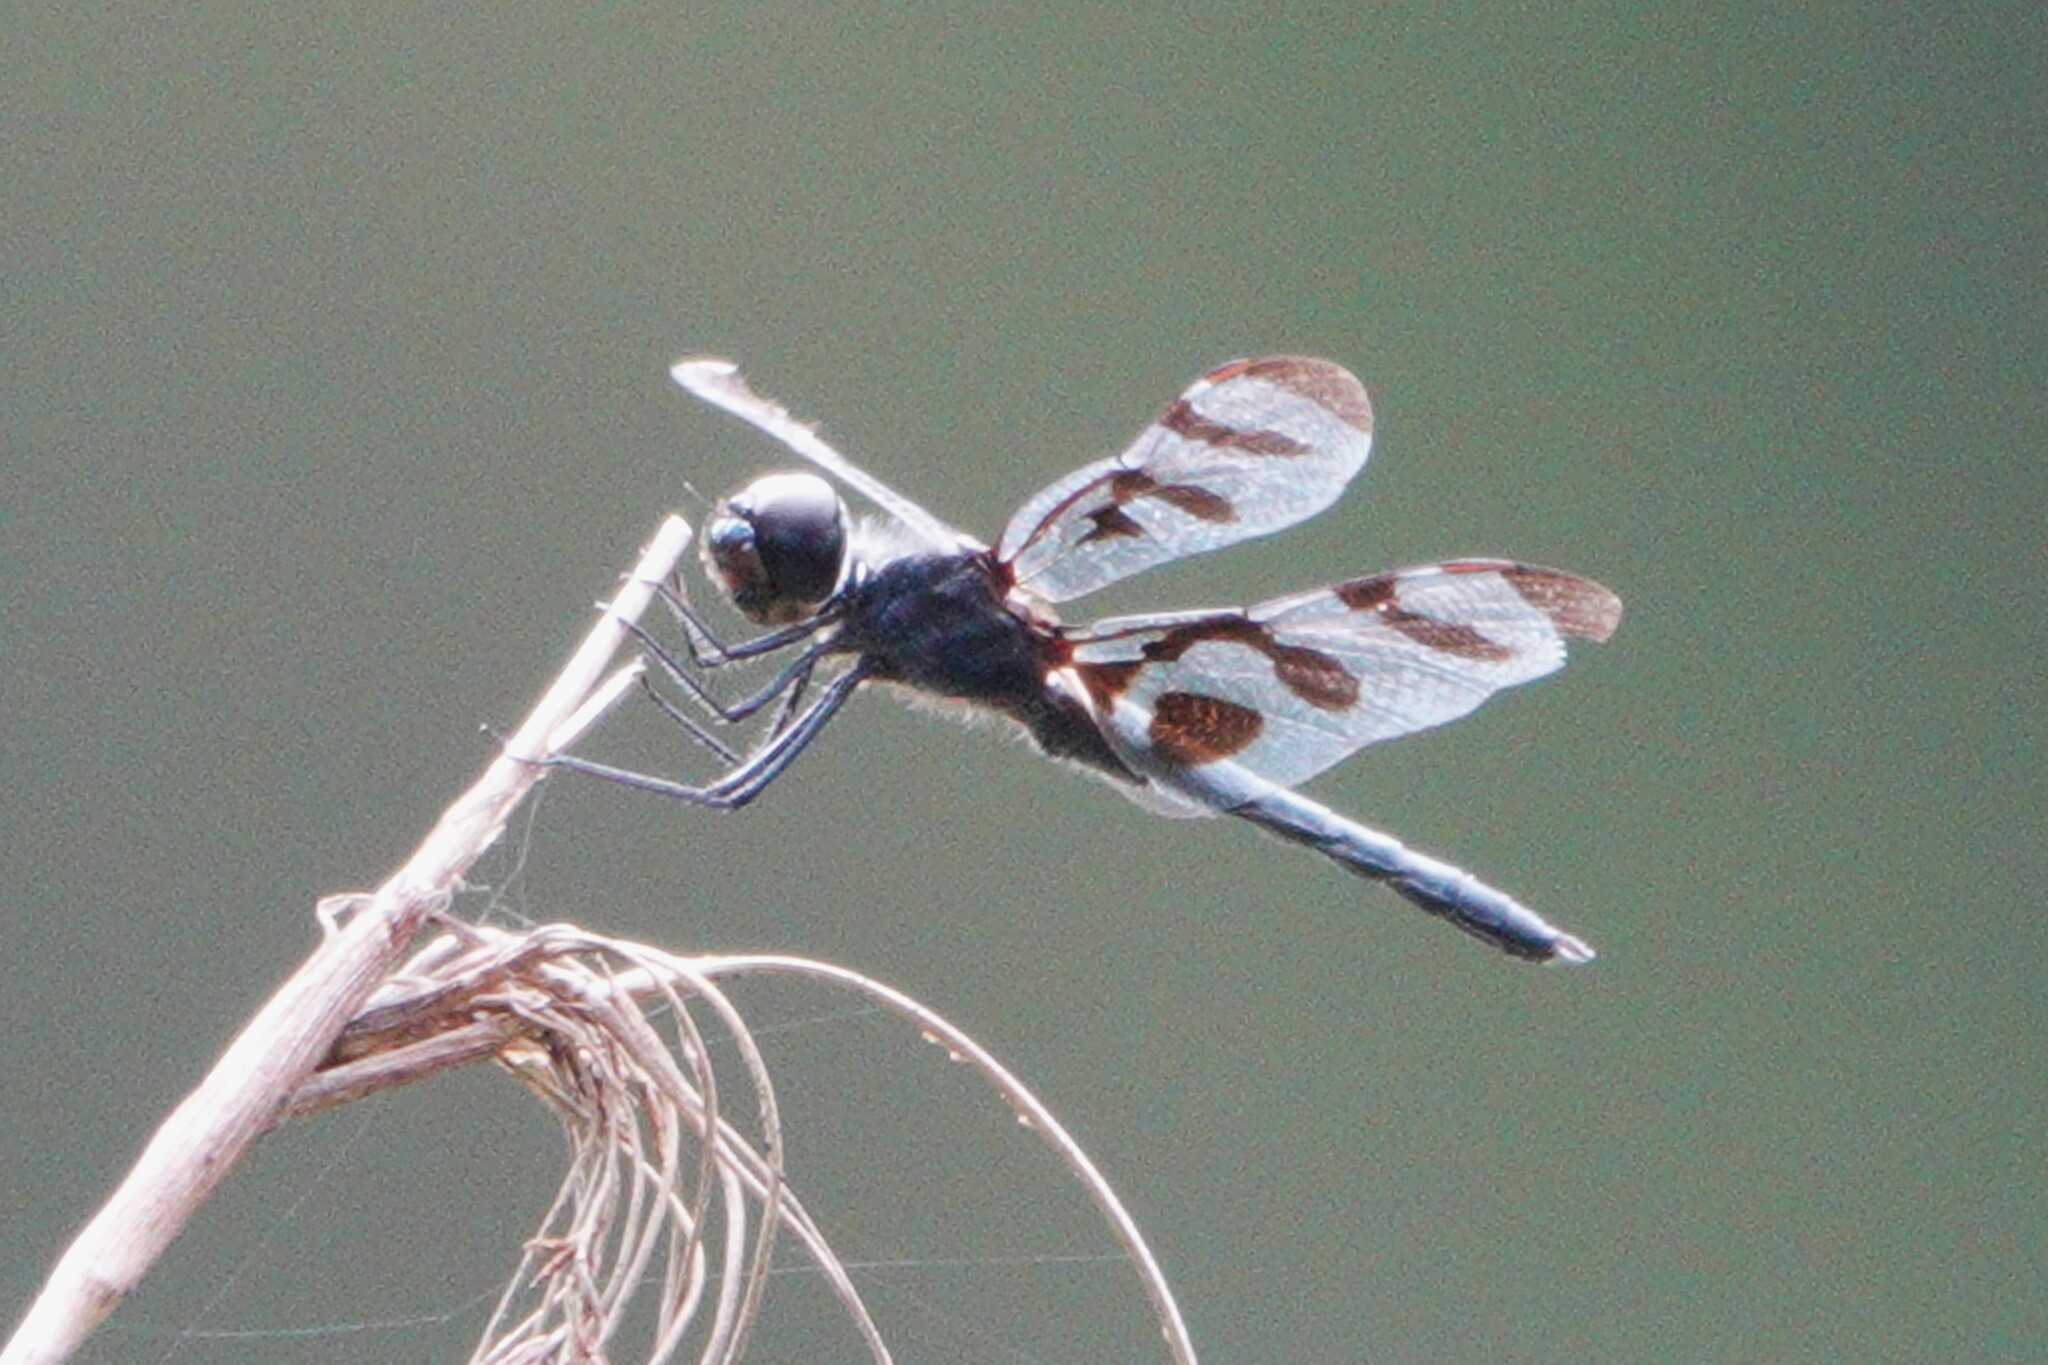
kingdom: Animalia
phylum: Arthropoda
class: Insecta
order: Odonata
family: Libellulidae
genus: Celithemis
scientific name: Celithemis fasciata
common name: Banded pennant
